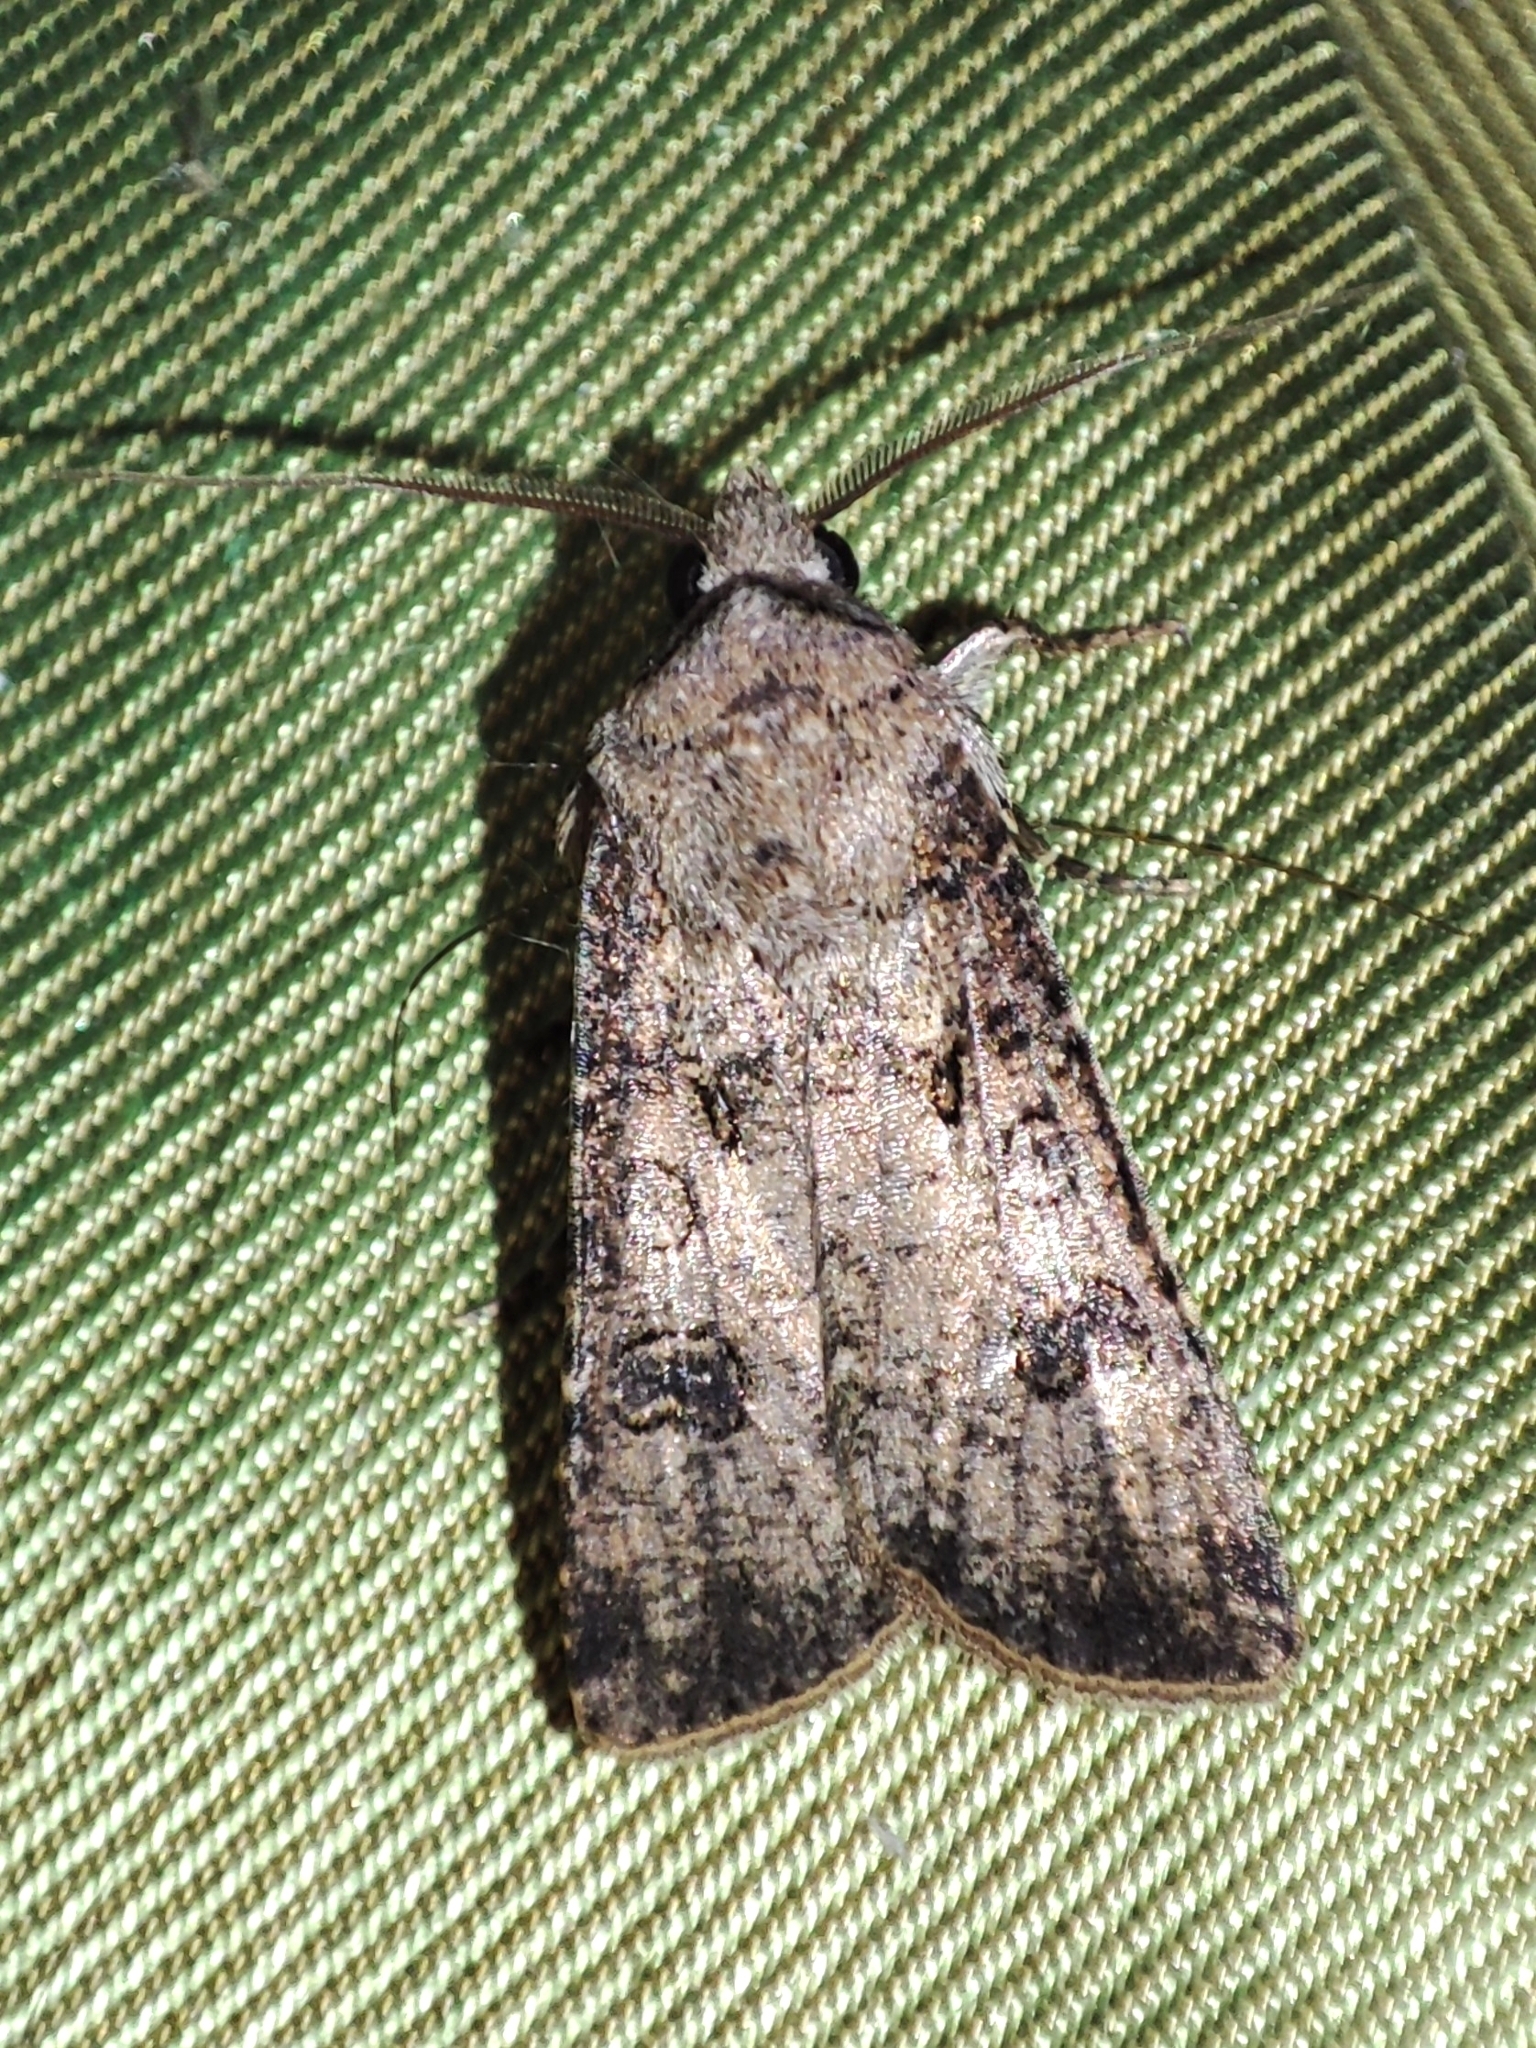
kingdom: Animalia
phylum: Arthropoda
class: Insecta
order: Lepidoptera
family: Noctuidae
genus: Agrotis
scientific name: Agrotis segetum
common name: Turnip moth
